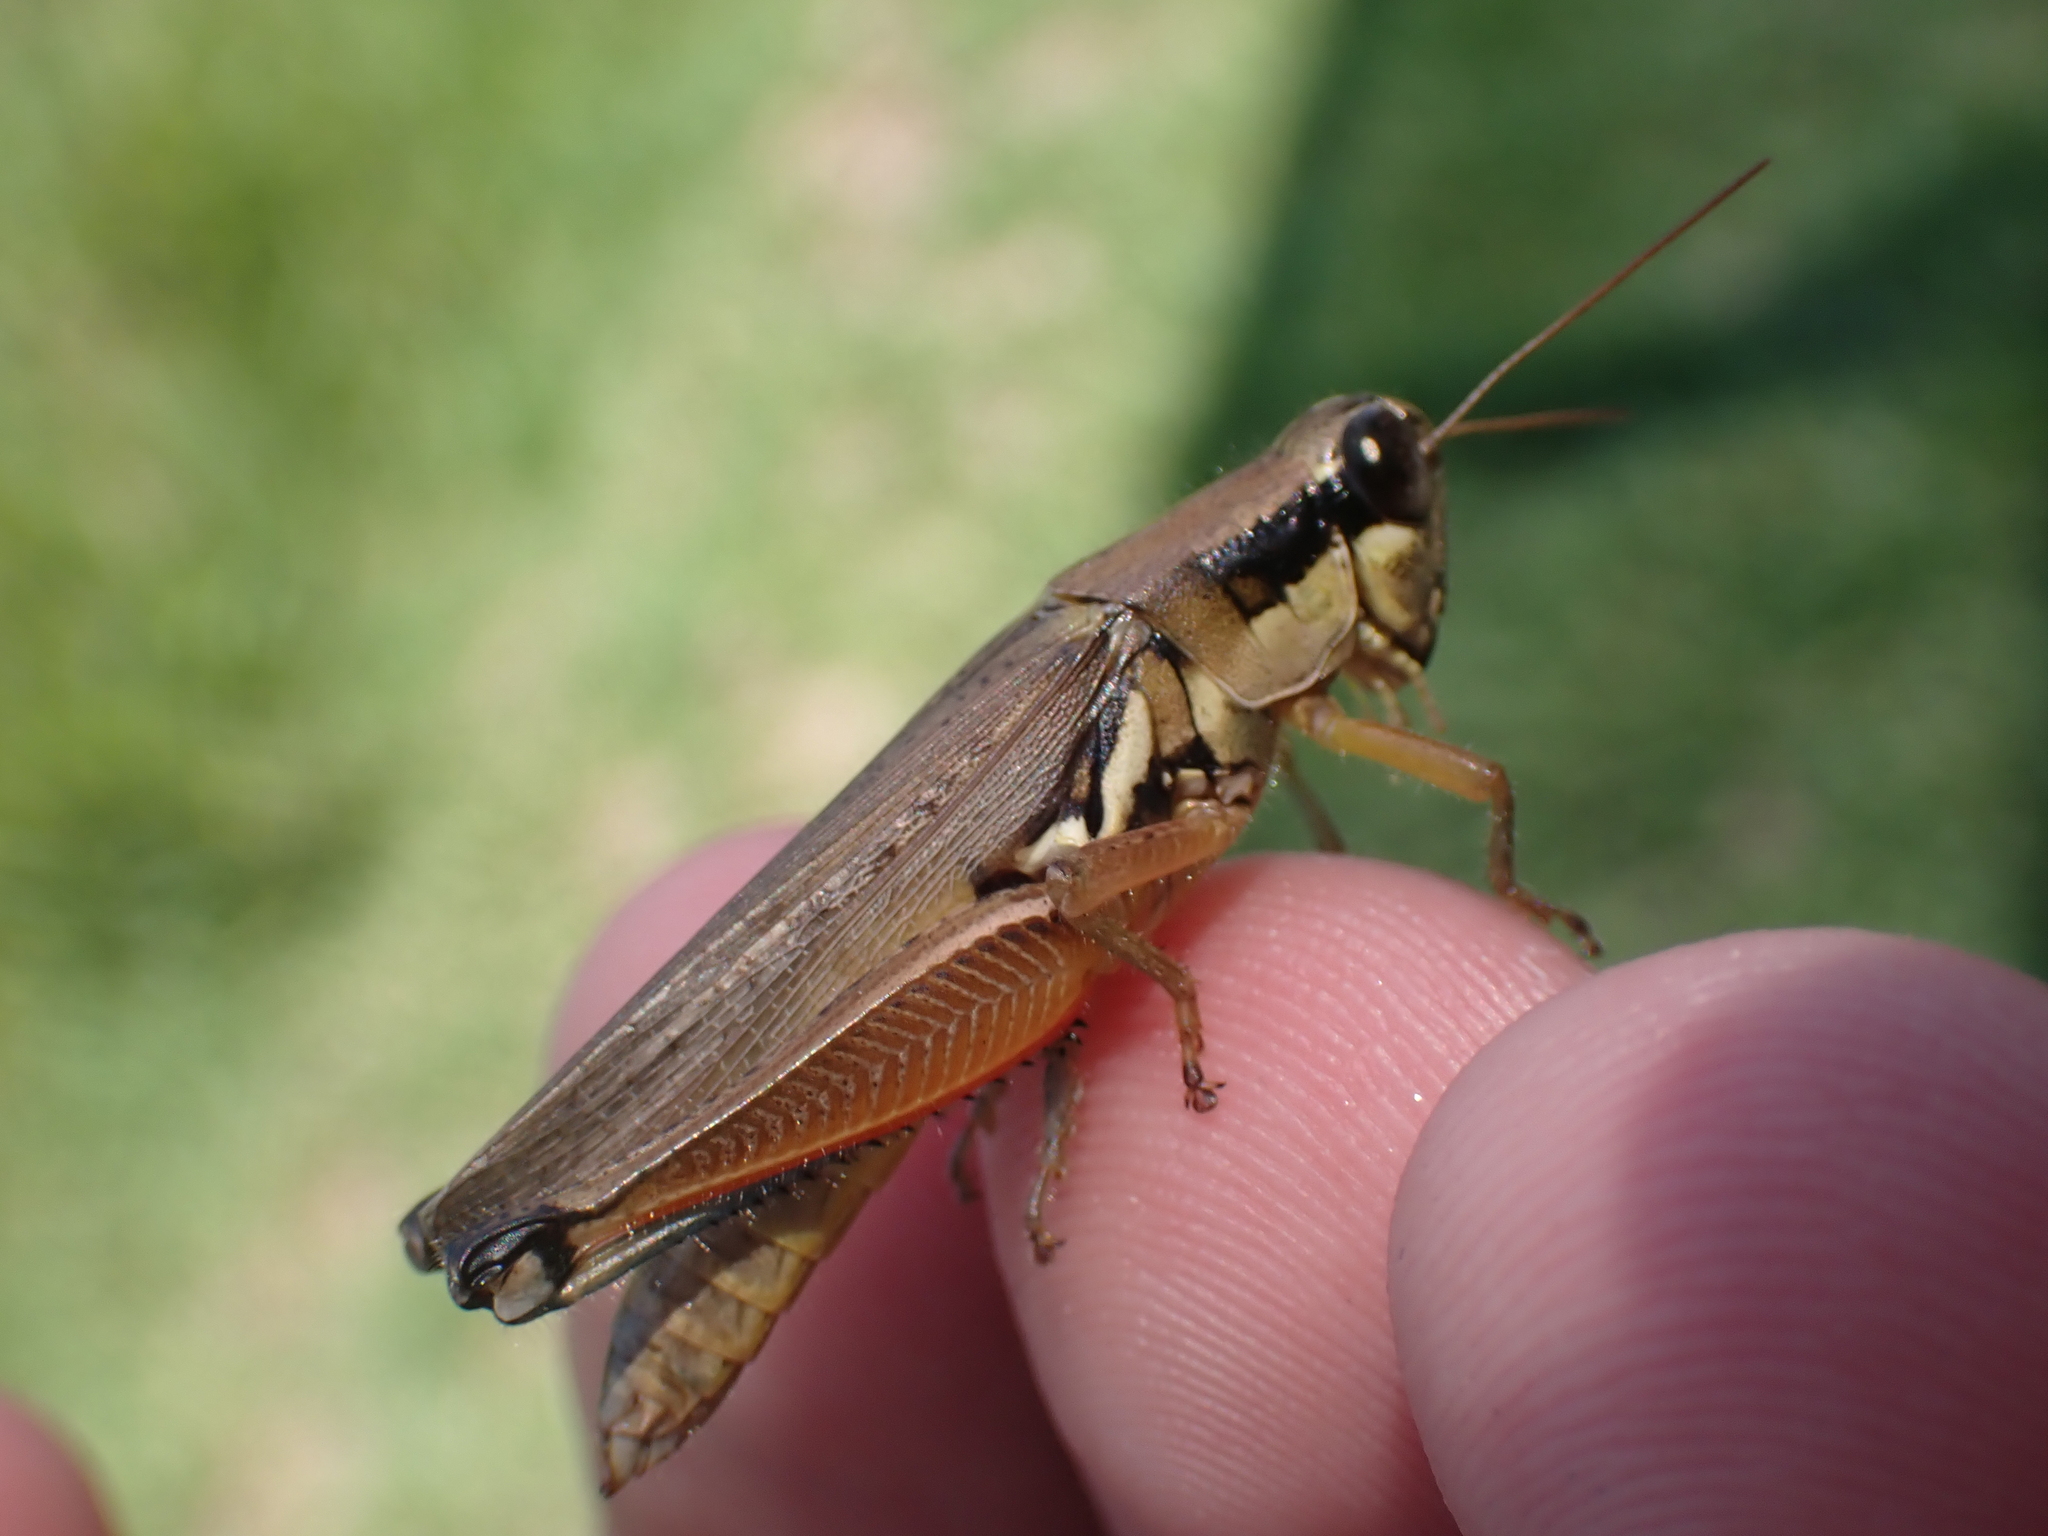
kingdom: Animalia
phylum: Arthropoda
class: Insecta
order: Orthoptera
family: Acrididae
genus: Paroxya
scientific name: Paroxya atlantica
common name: Atlantic grasshopper
